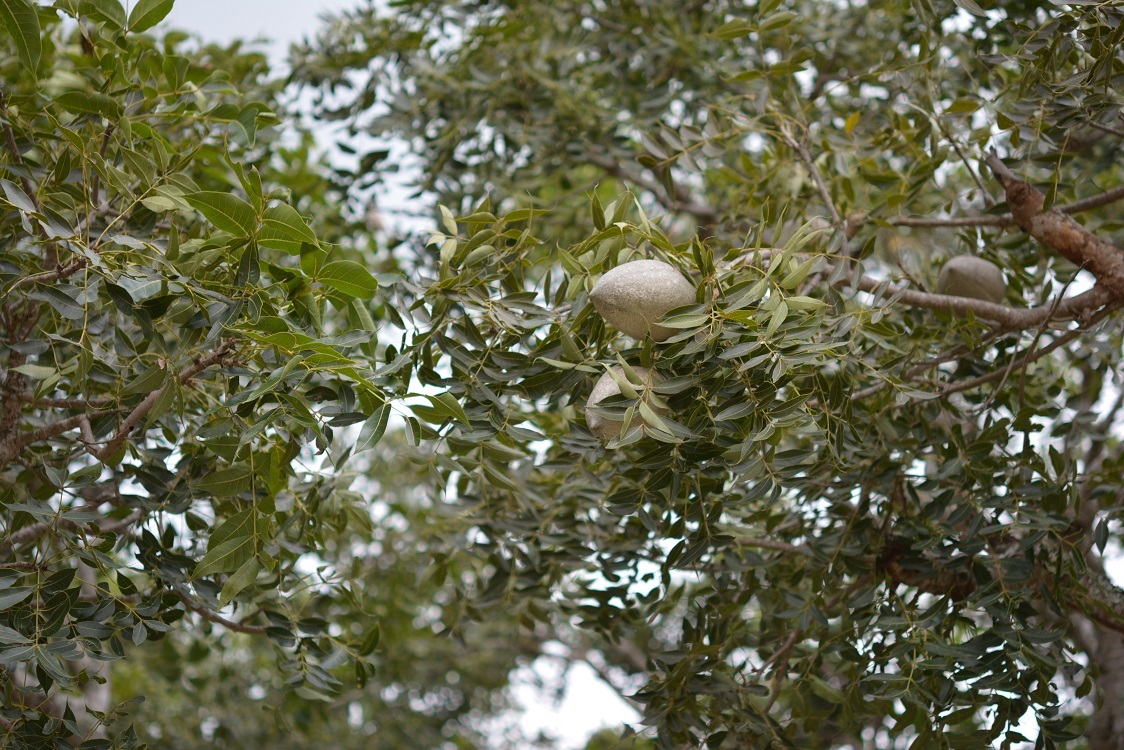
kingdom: Plantae
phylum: Tracheophyta
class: Magnoliopsida
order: Sapindales
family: Meliaceae
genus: Swietenia
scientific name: Swietenia humilis
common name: Pacific coast mahogany
